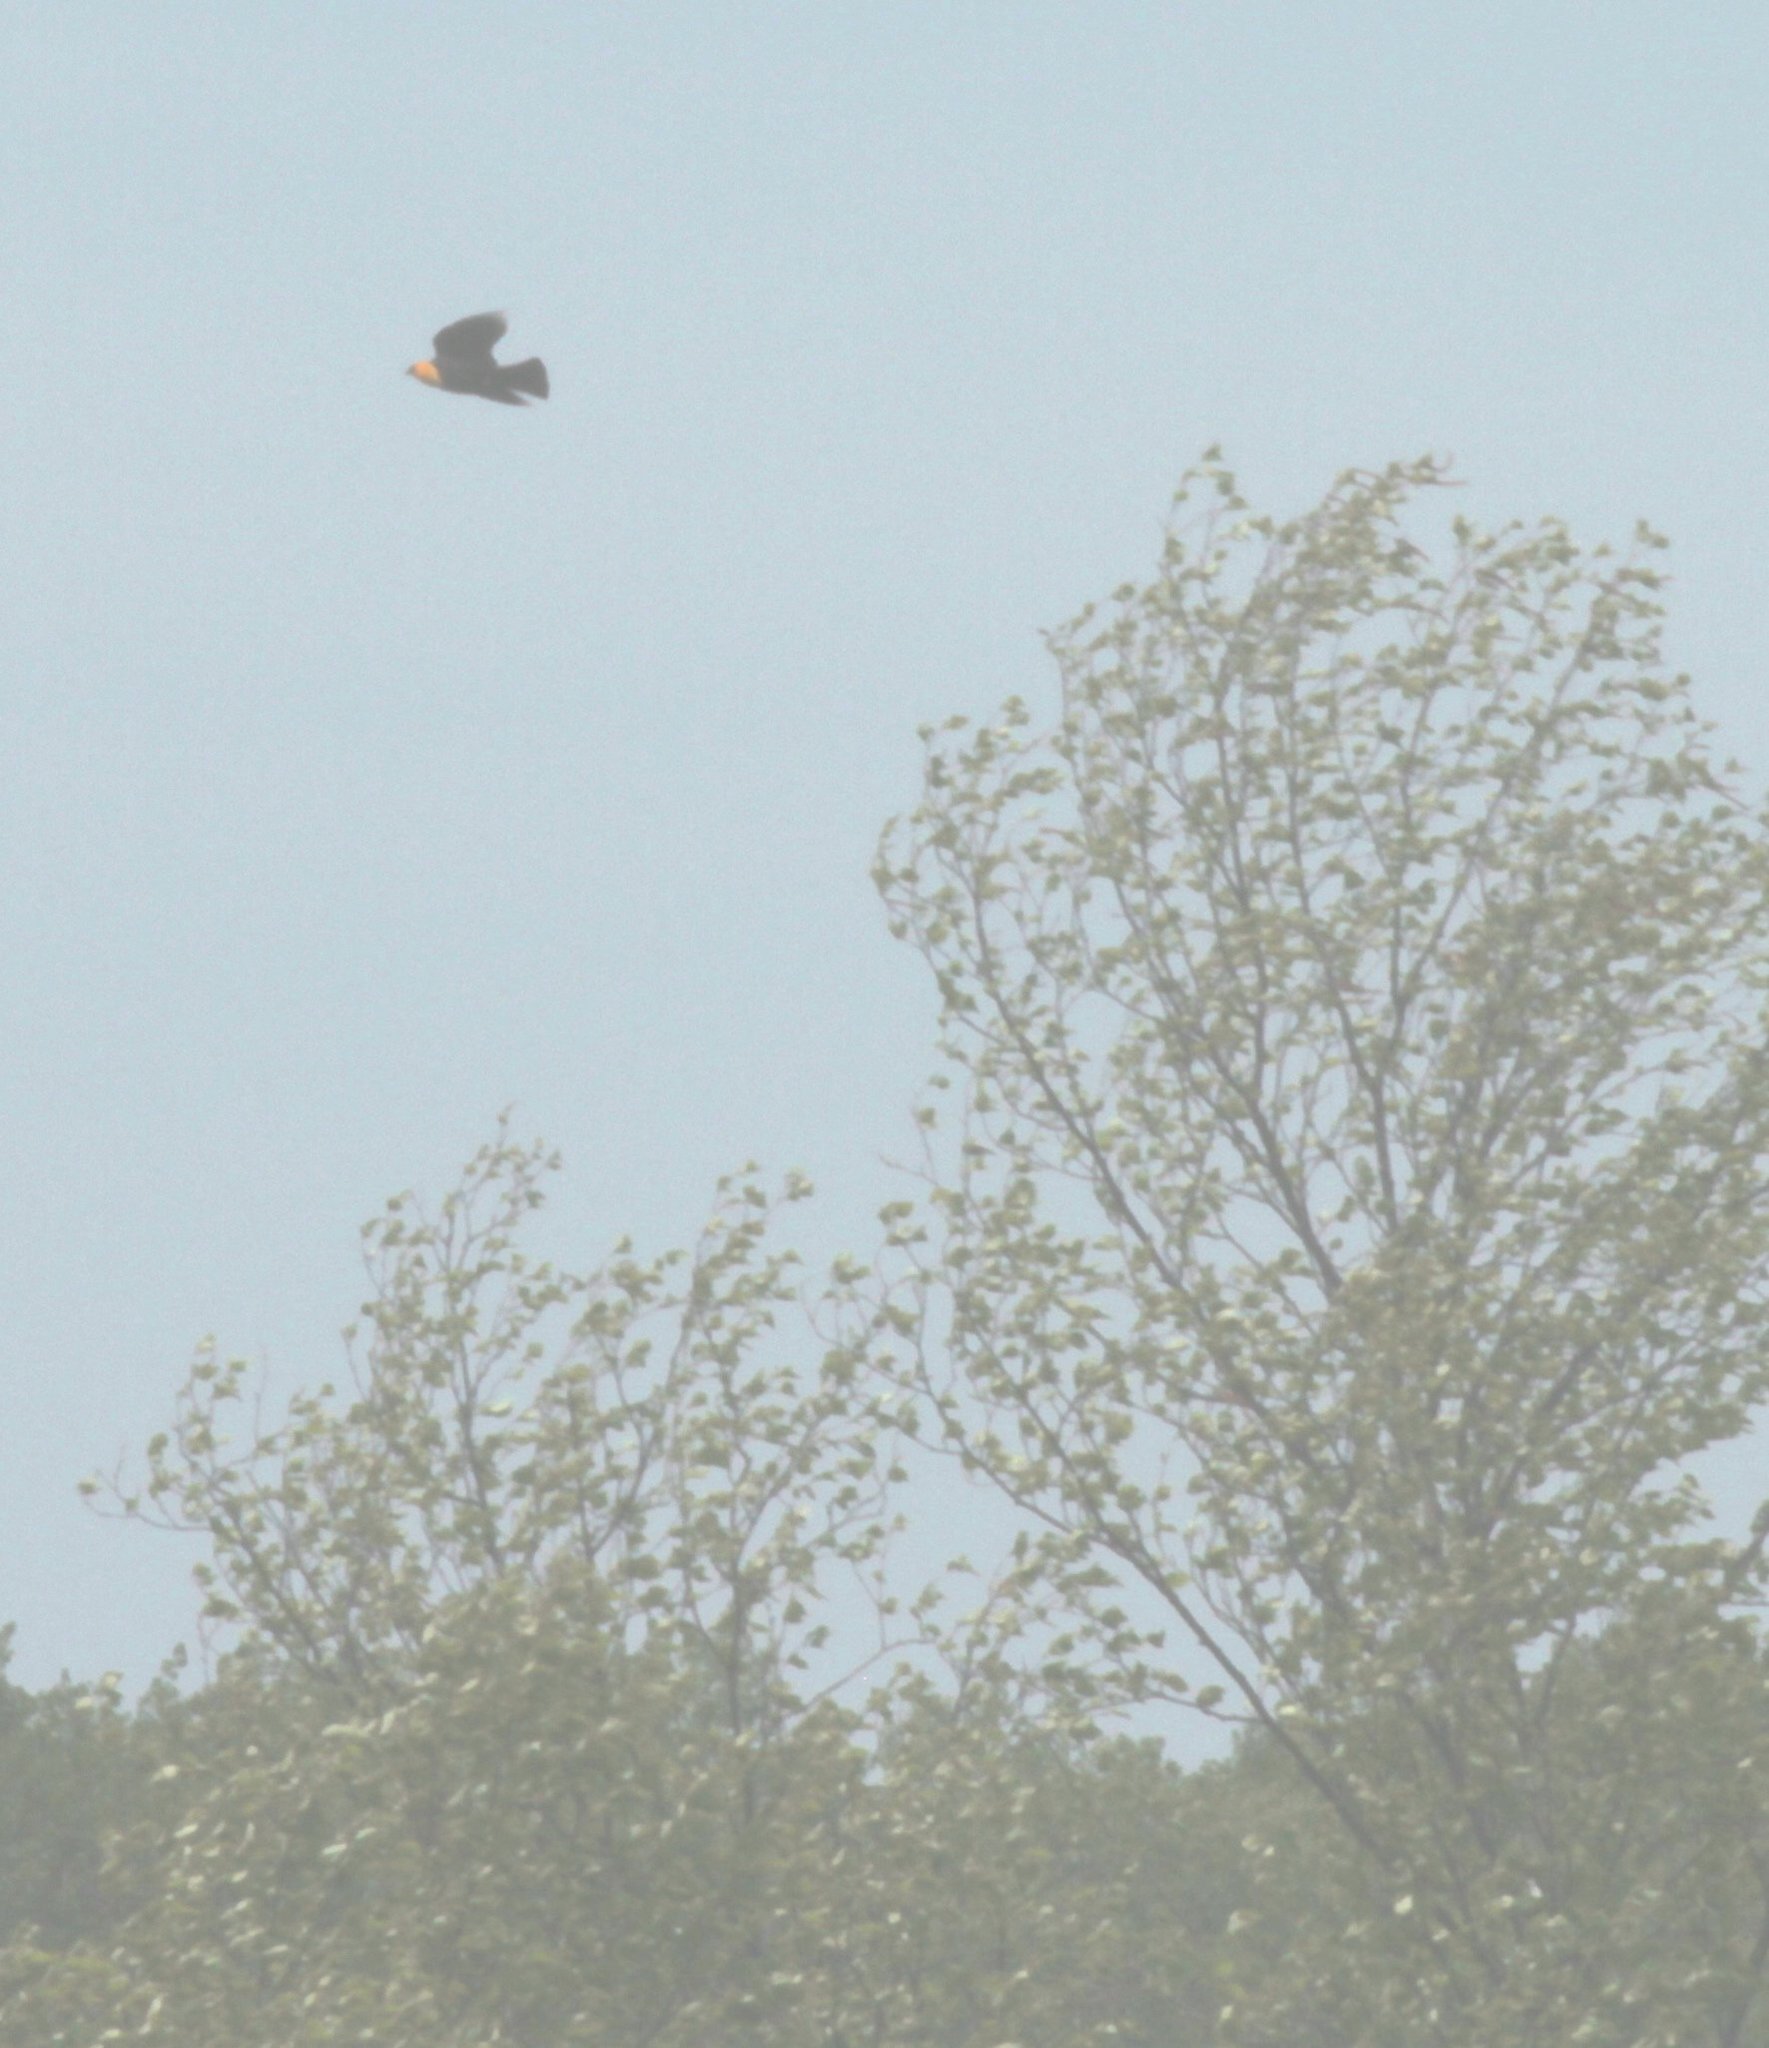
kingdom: Animalia
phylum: Chordata
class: Aves
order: Passeriformes
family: Icteridae
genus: Xanthocephalus
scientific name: Xanthocephalus xanthocephalus
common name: Yellow-headed blackbird
